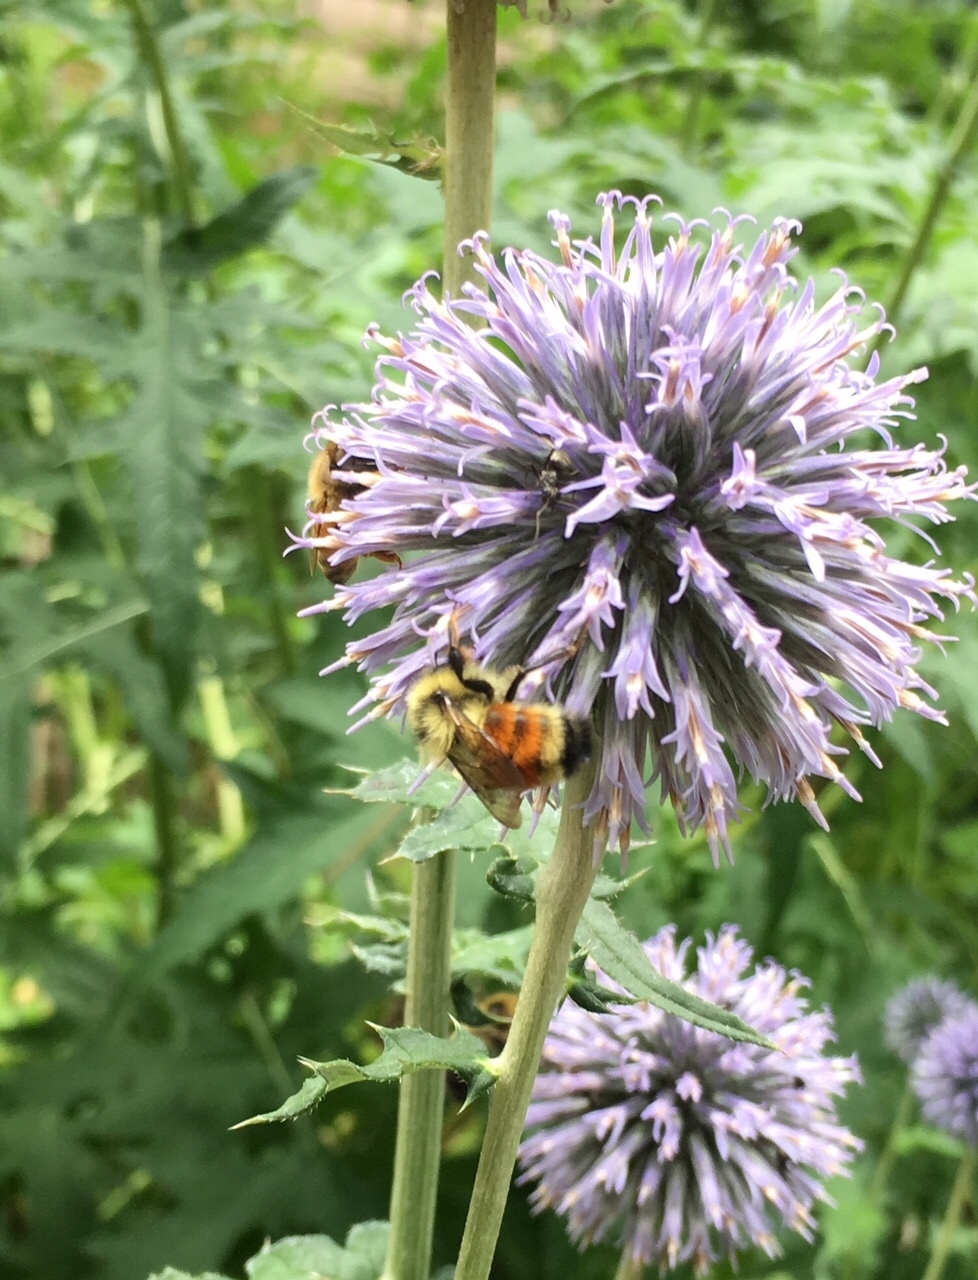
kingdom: Animalia
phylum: Arthropoda
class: Insecta
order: Hymenoptera
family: Apidae
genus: Bombus
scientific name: Bombus ternarius
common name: Tri-colored bumble bee
